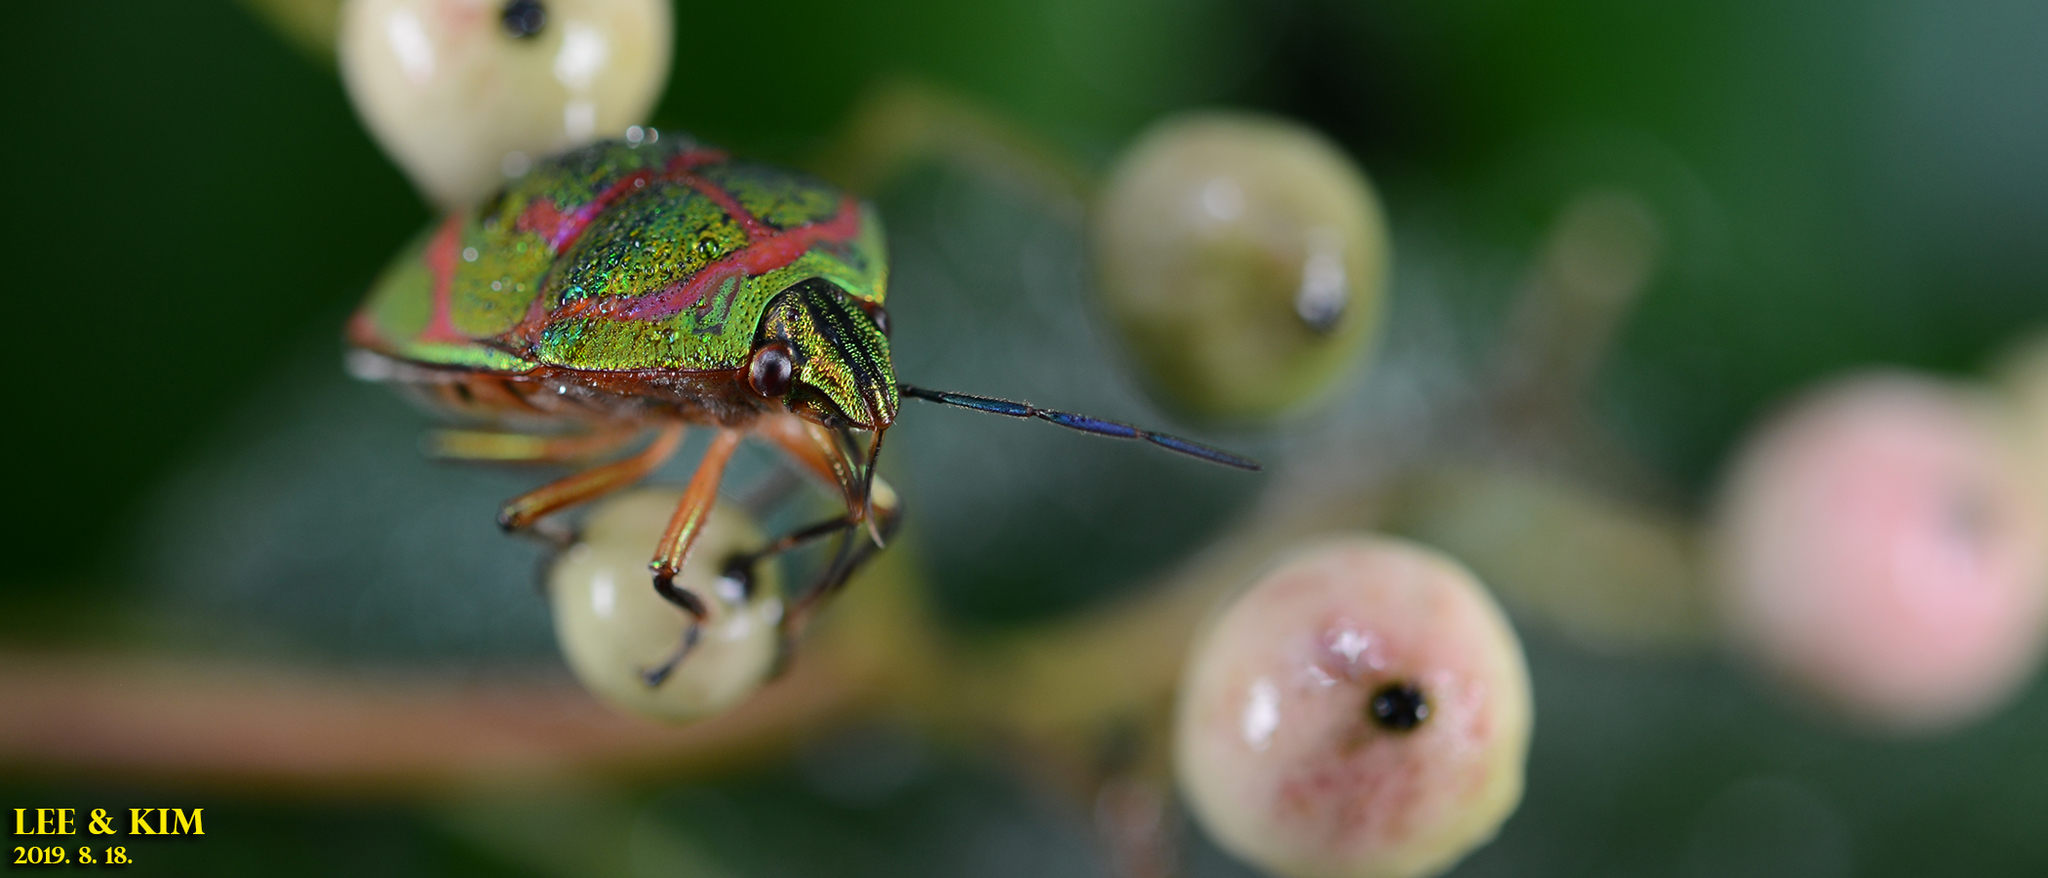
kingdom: Animalia
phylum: Arthropoda
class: Insecta
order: Hemiptera
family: Scutelleridae
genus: Poecilocoris
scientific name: Poecilocoris lewisi
